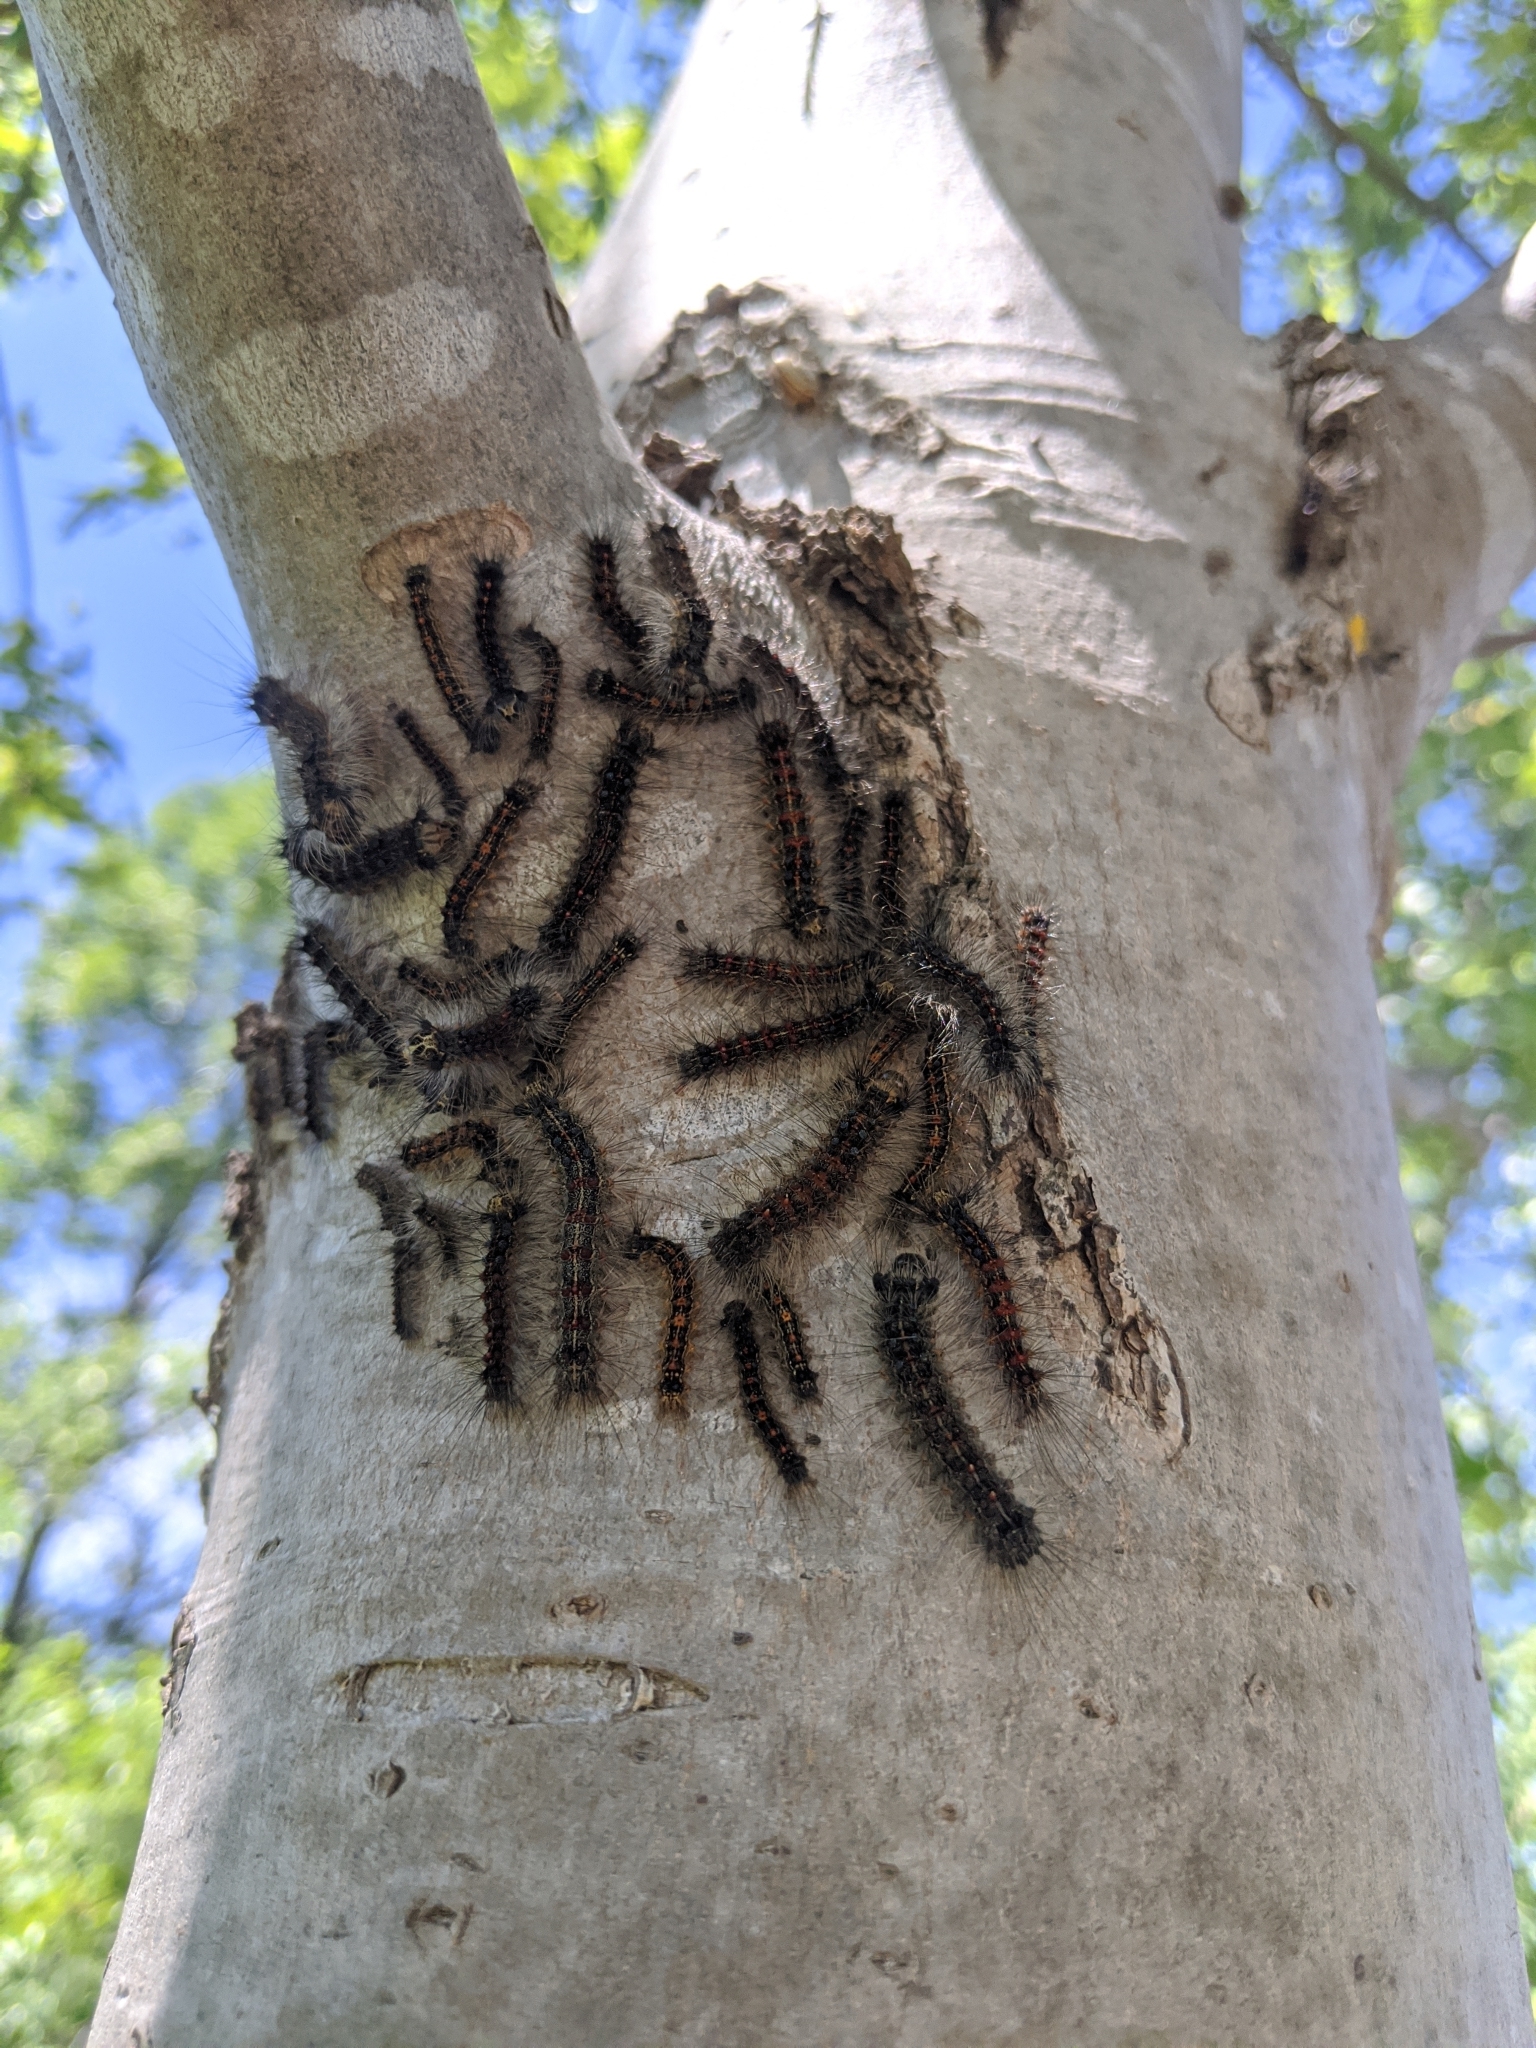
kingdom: Animalia
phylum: Arthropoda
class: Insecta
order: Lepidoptera
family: Erebidae
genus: Lymantria
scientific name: Lymantria dispar
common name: Gypsy moth
